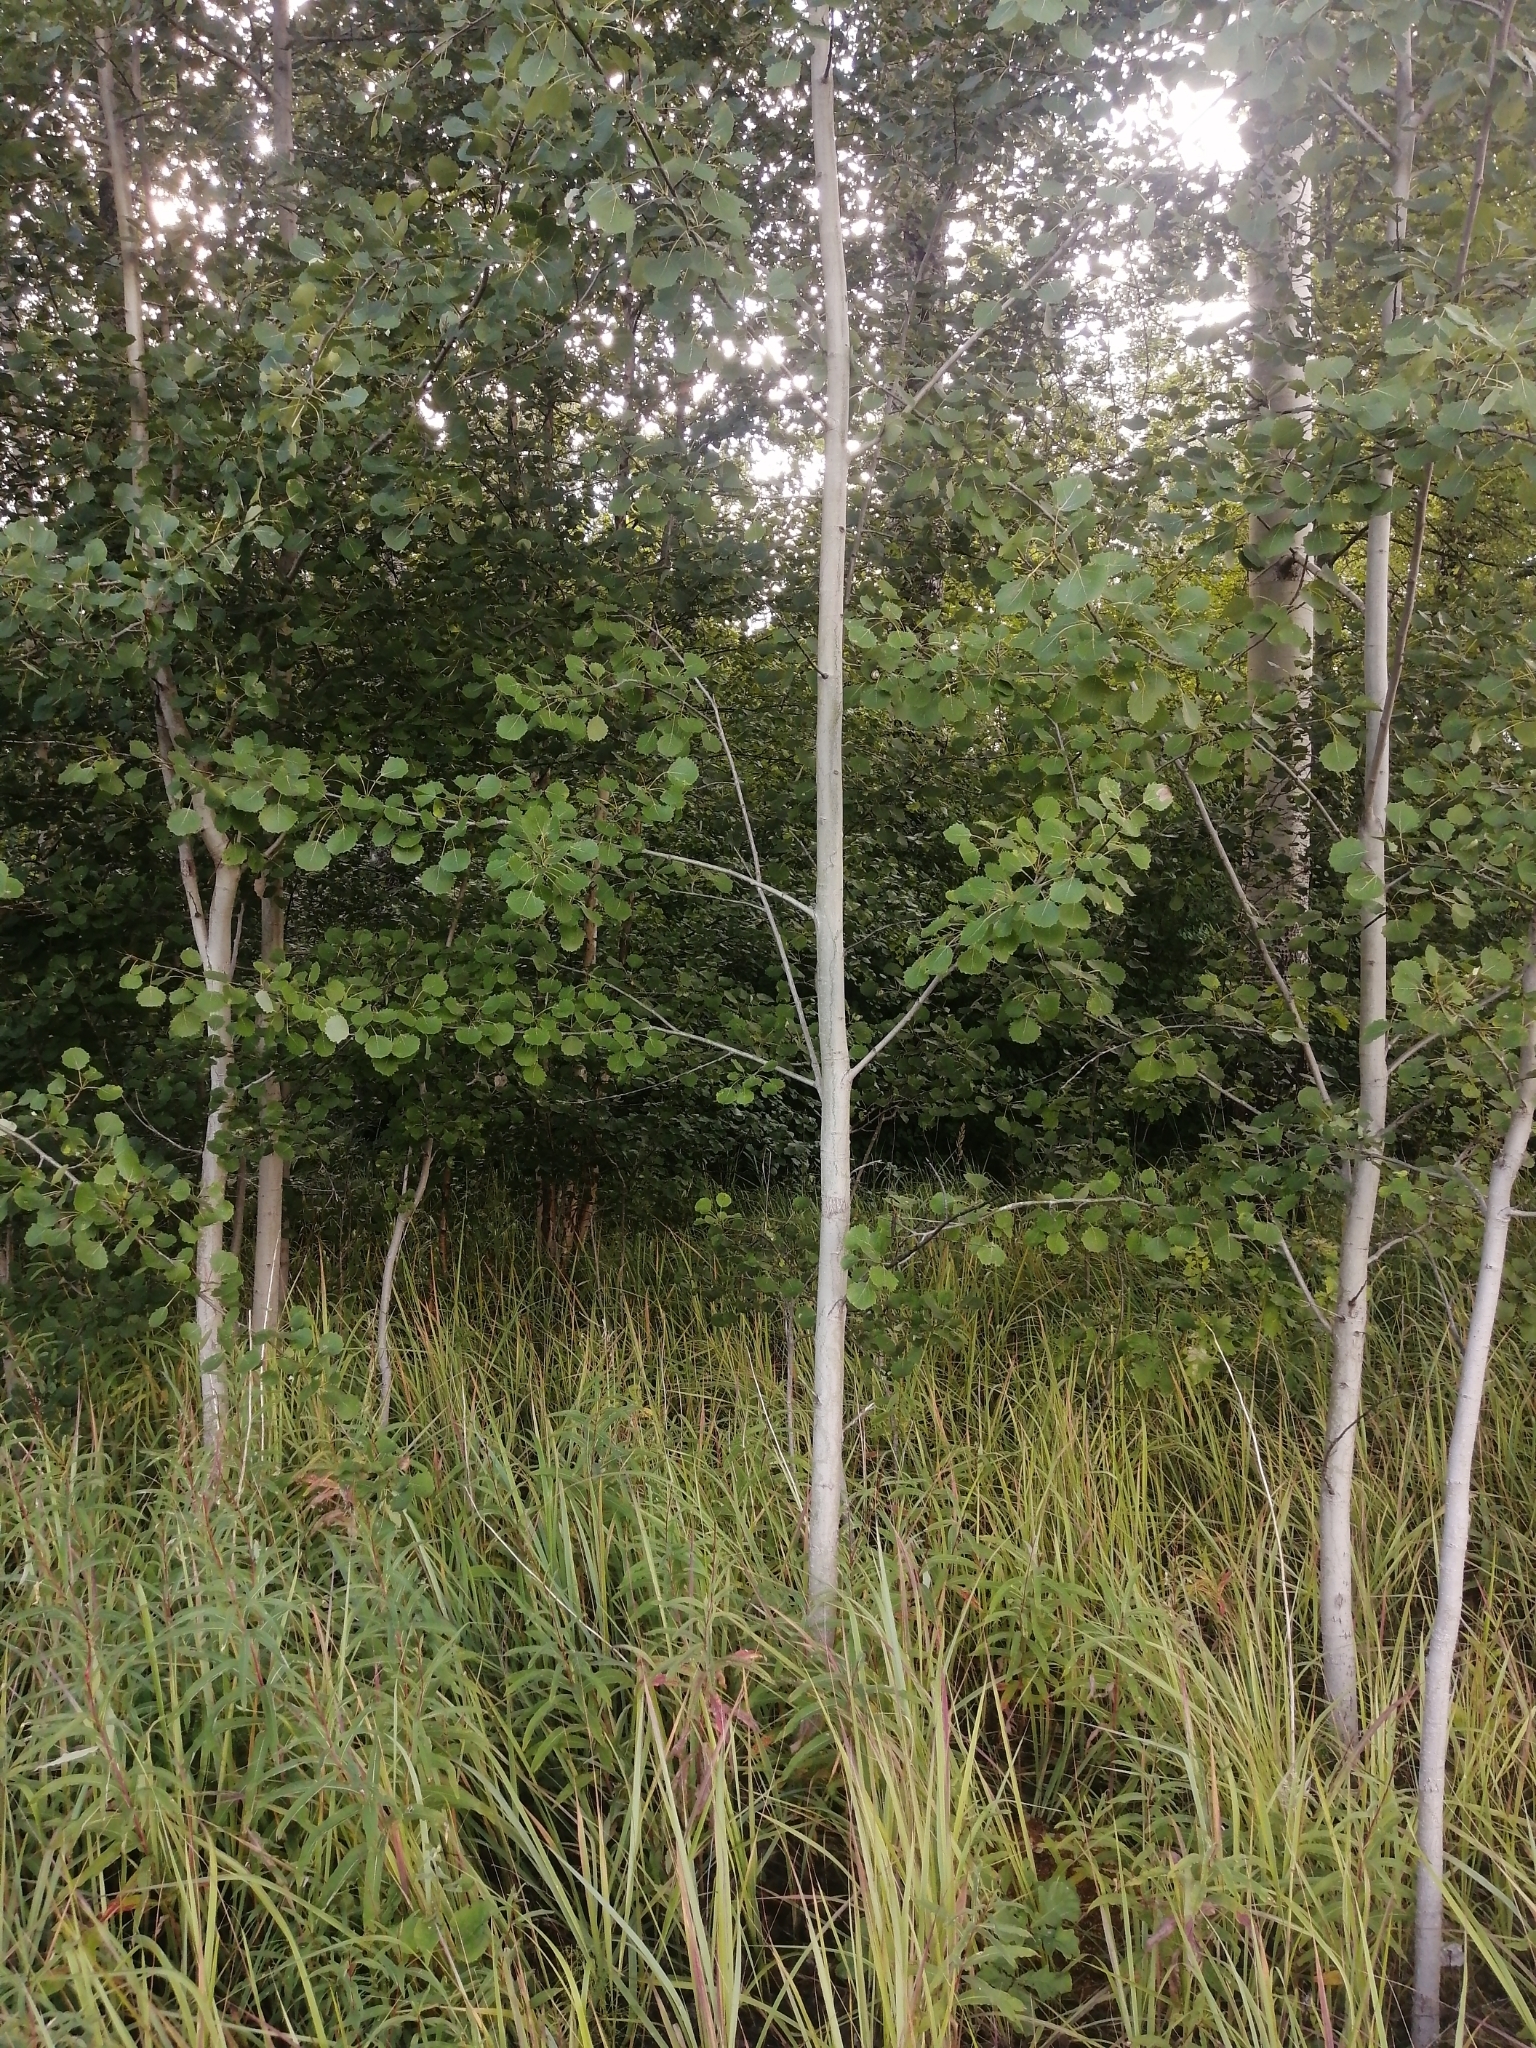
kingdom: Plantae
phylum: Tracheophyta
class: Magnoliopsida
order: Malpighiales
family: Salicaceae
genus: Populus
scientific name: Populus tremula
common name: European aspen
